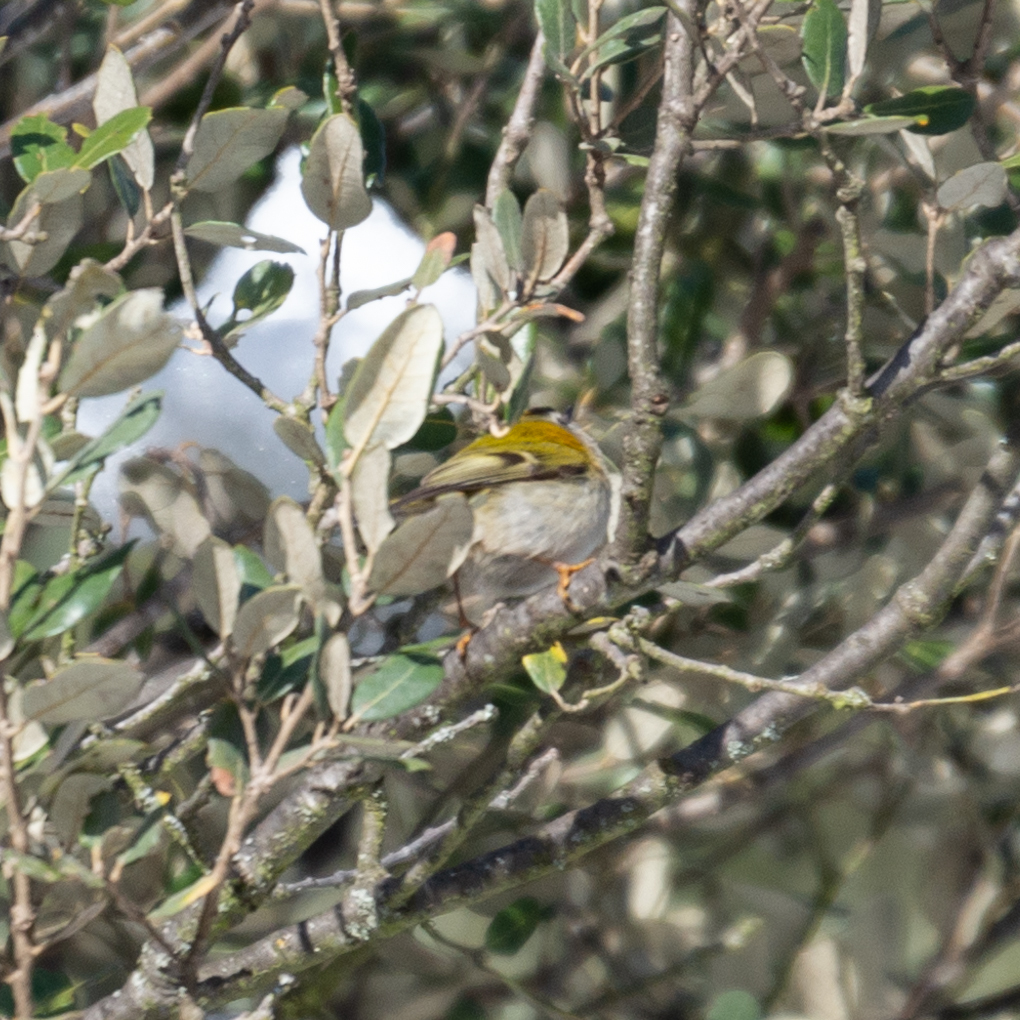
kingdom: Animalia
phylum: Chordata
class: Aves
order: Passeriformes
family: Regulidae
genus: Regulus
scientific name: Regulus ignicapilla
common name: Firecrest
